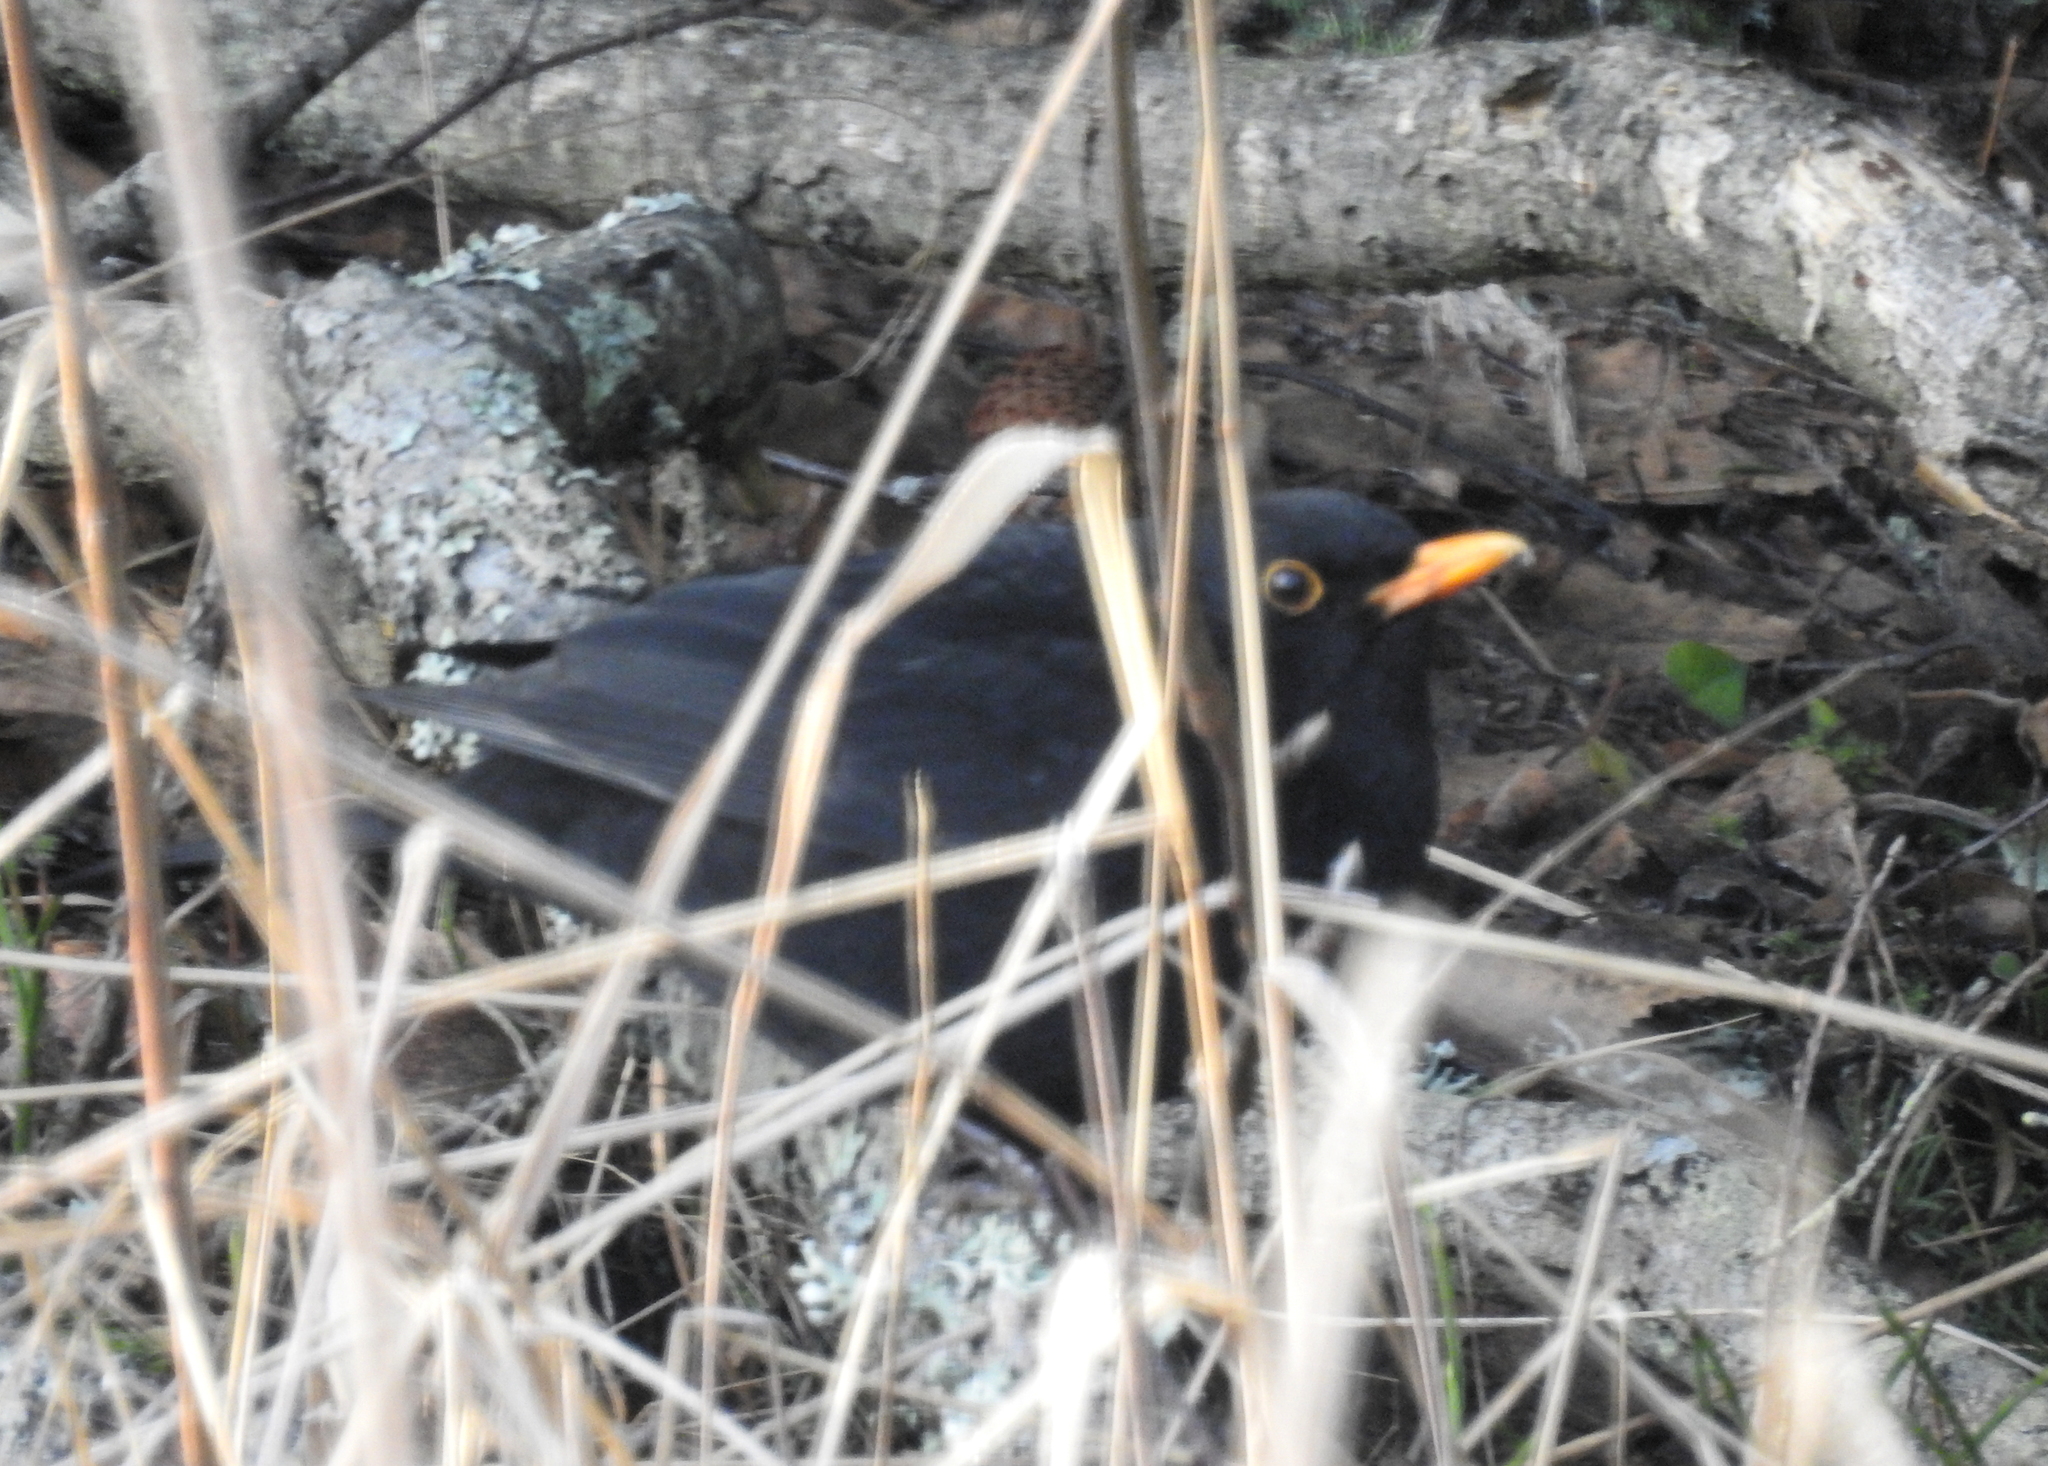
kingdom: Animalia
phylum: Chordata
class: Aves
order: Passeriformes
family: Turdidae
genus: Turdus
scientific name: Turdus merula
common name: Common blackbird
